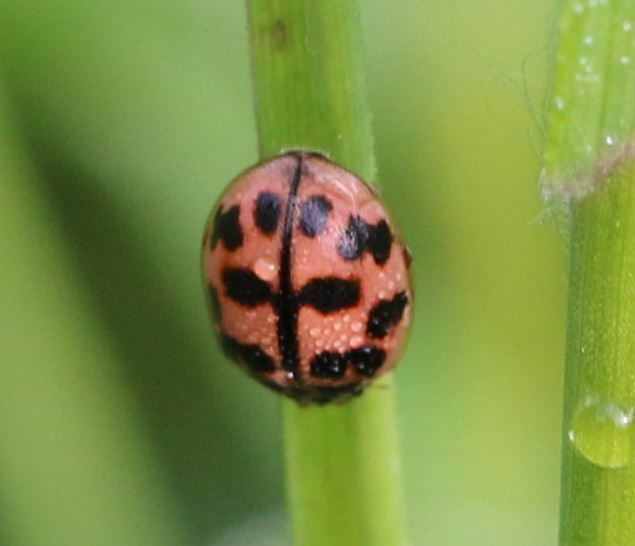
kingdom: Animalia
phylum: Arthropoda
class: Insecta
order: Coleoptera
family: Coccinellidae
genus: Oenopia
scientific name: Oenopia conglobata
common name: Ladybird beetle
